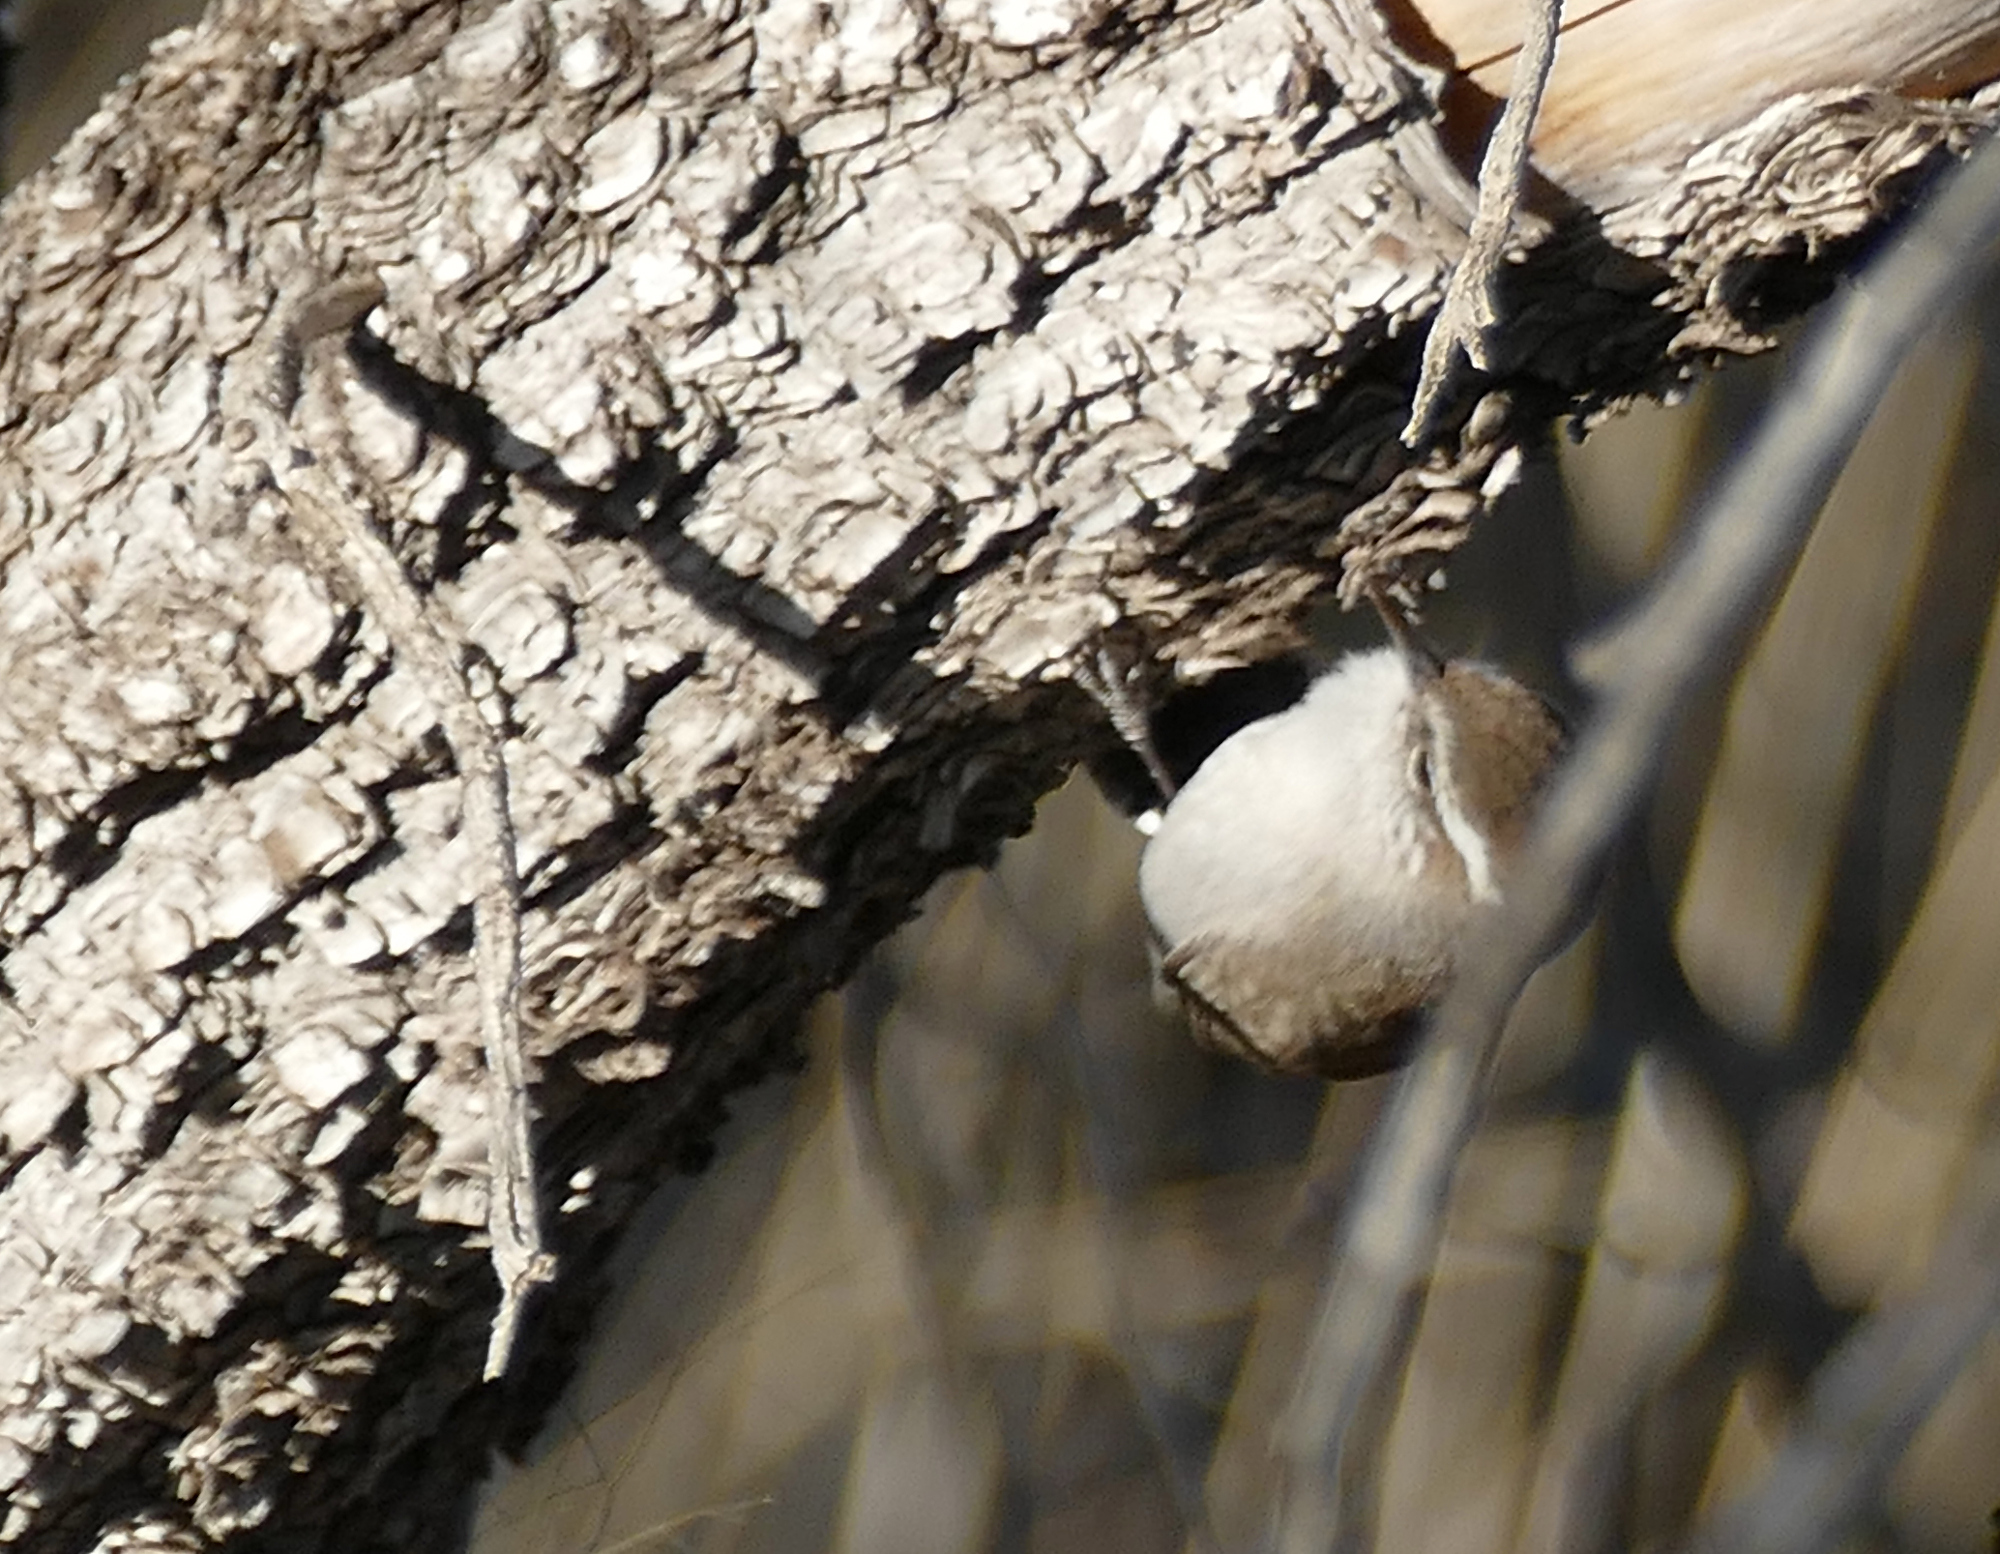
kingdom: Animalia
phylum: Chordata
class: Aves
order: Passeriformes
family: Troglodytidae
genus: Thryomanes
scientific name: Thryomanes bewickii
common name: Bewick's wren
